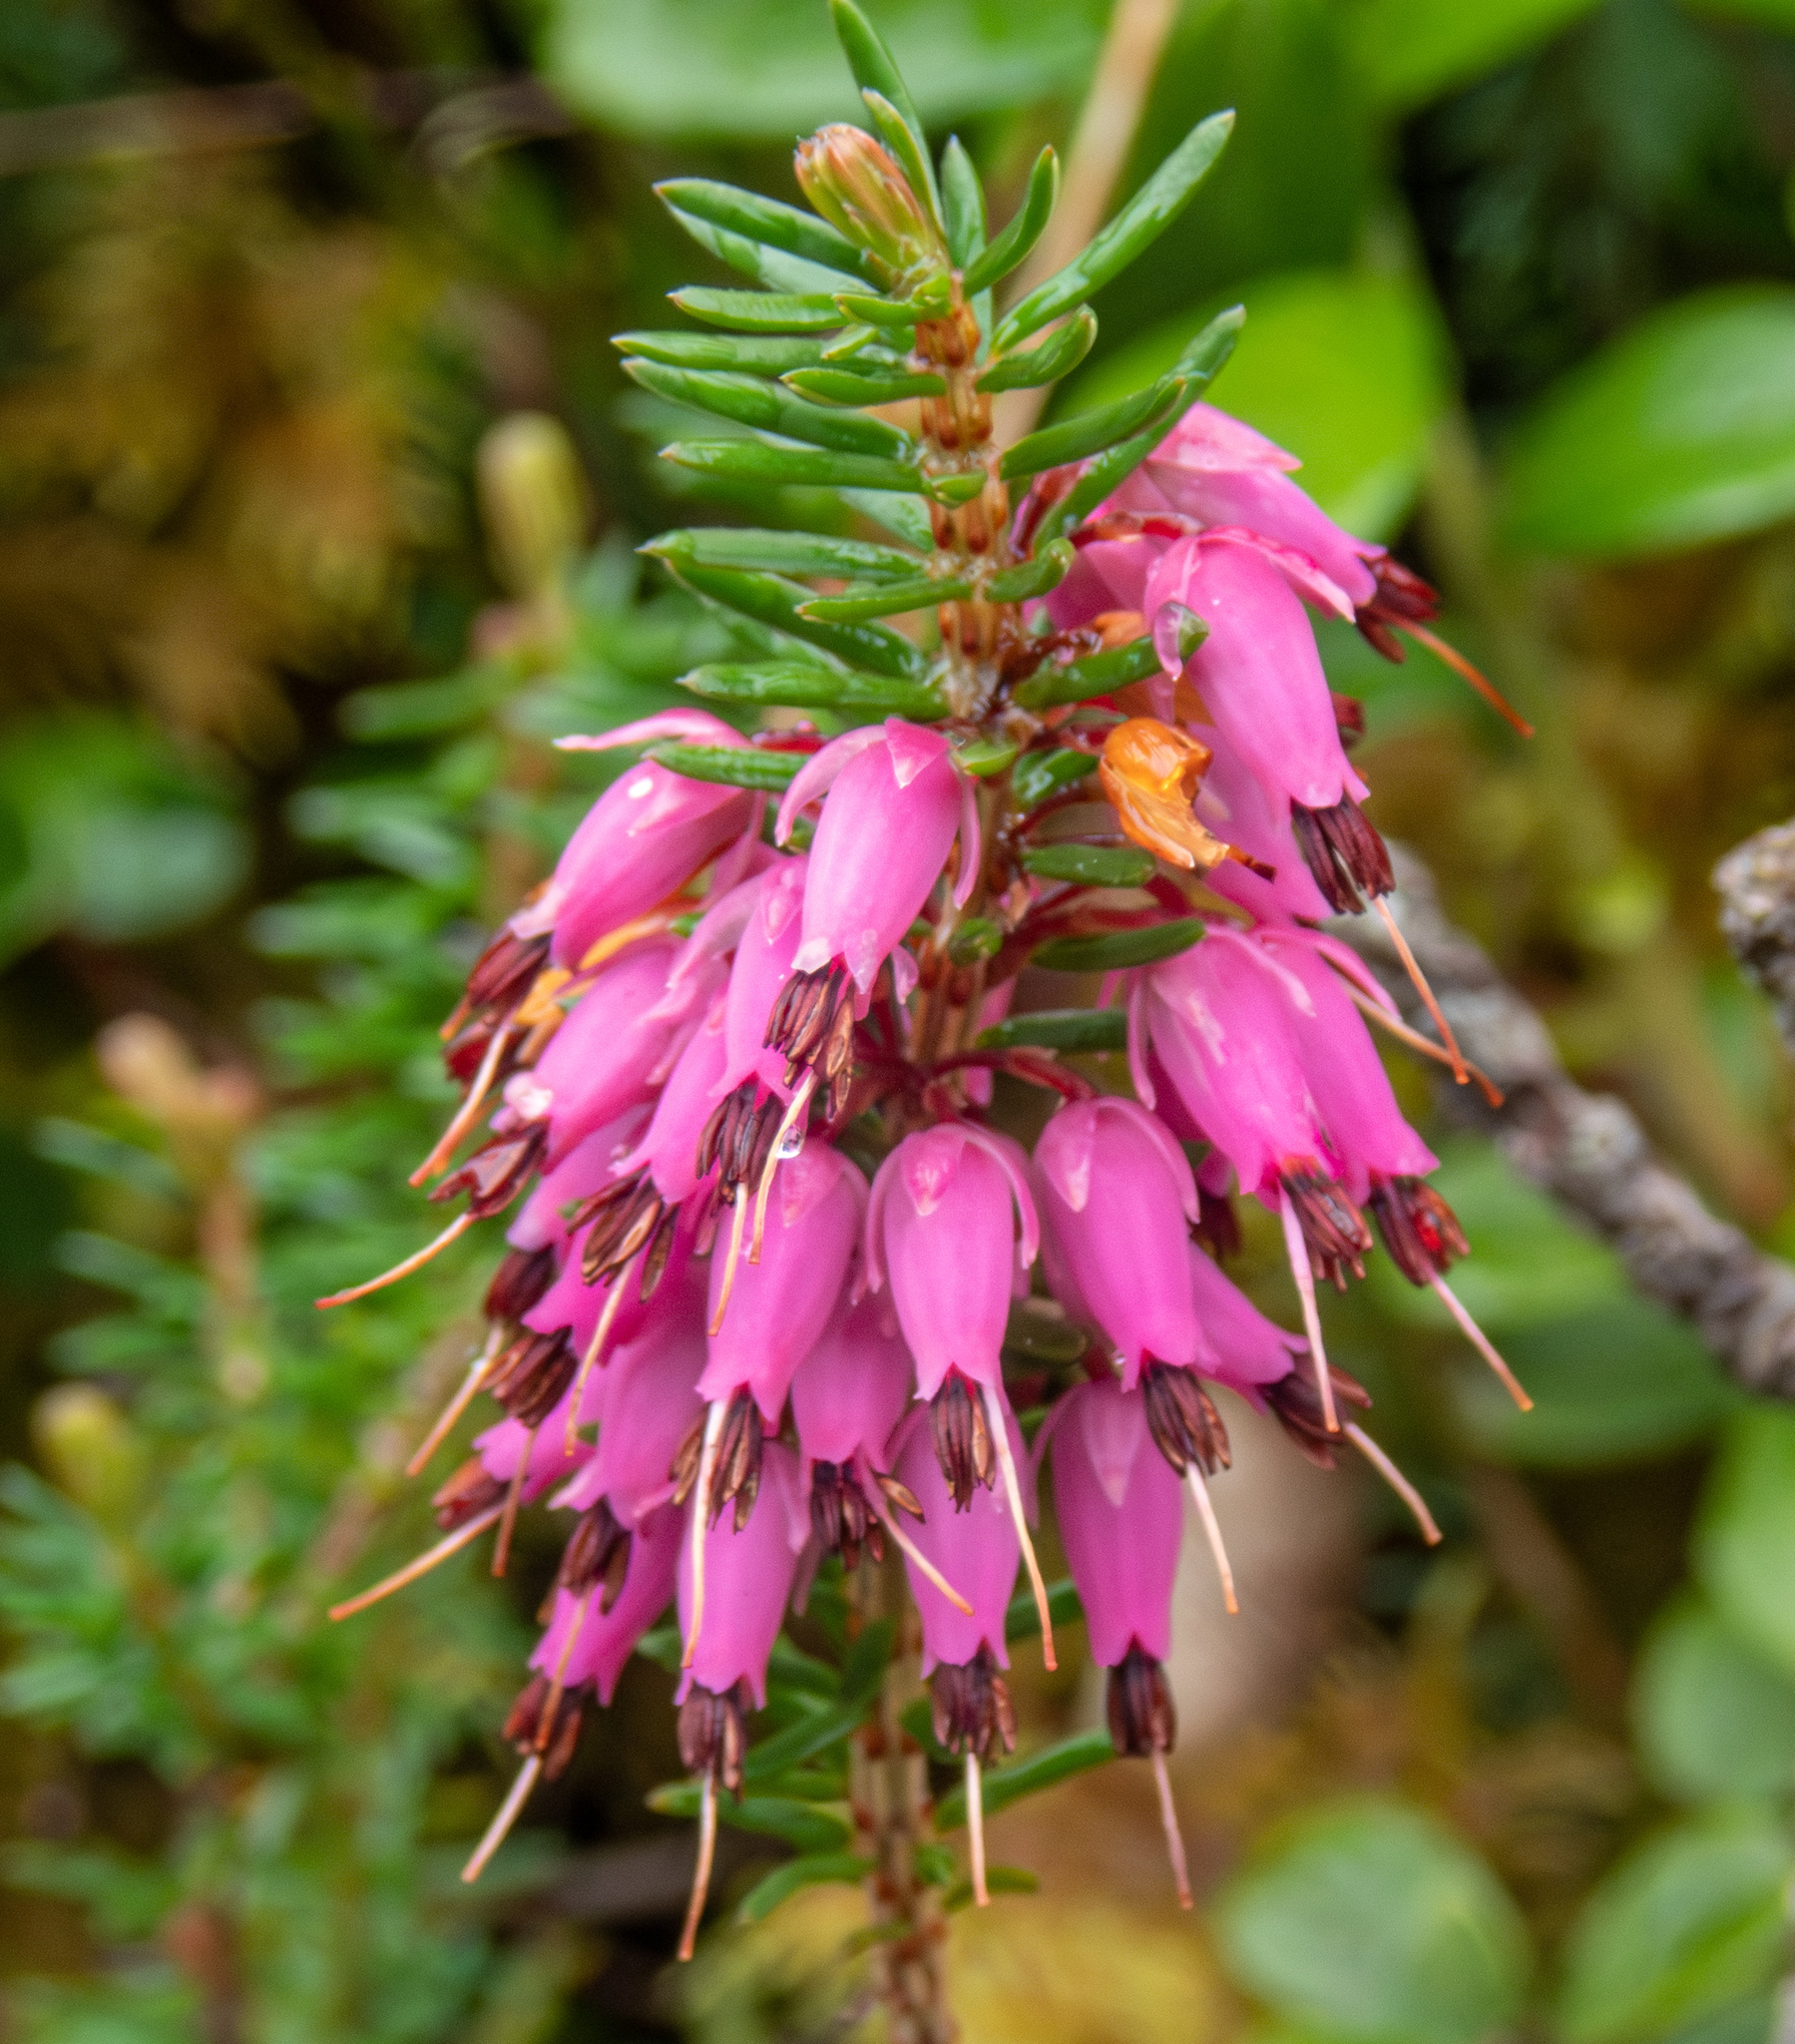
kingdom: Plantae
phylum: Tracheophyta
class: Magnoliopsida
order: Ericales
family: Ericaceae
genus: Erica
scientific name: Erica carnea
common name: Winter heath
